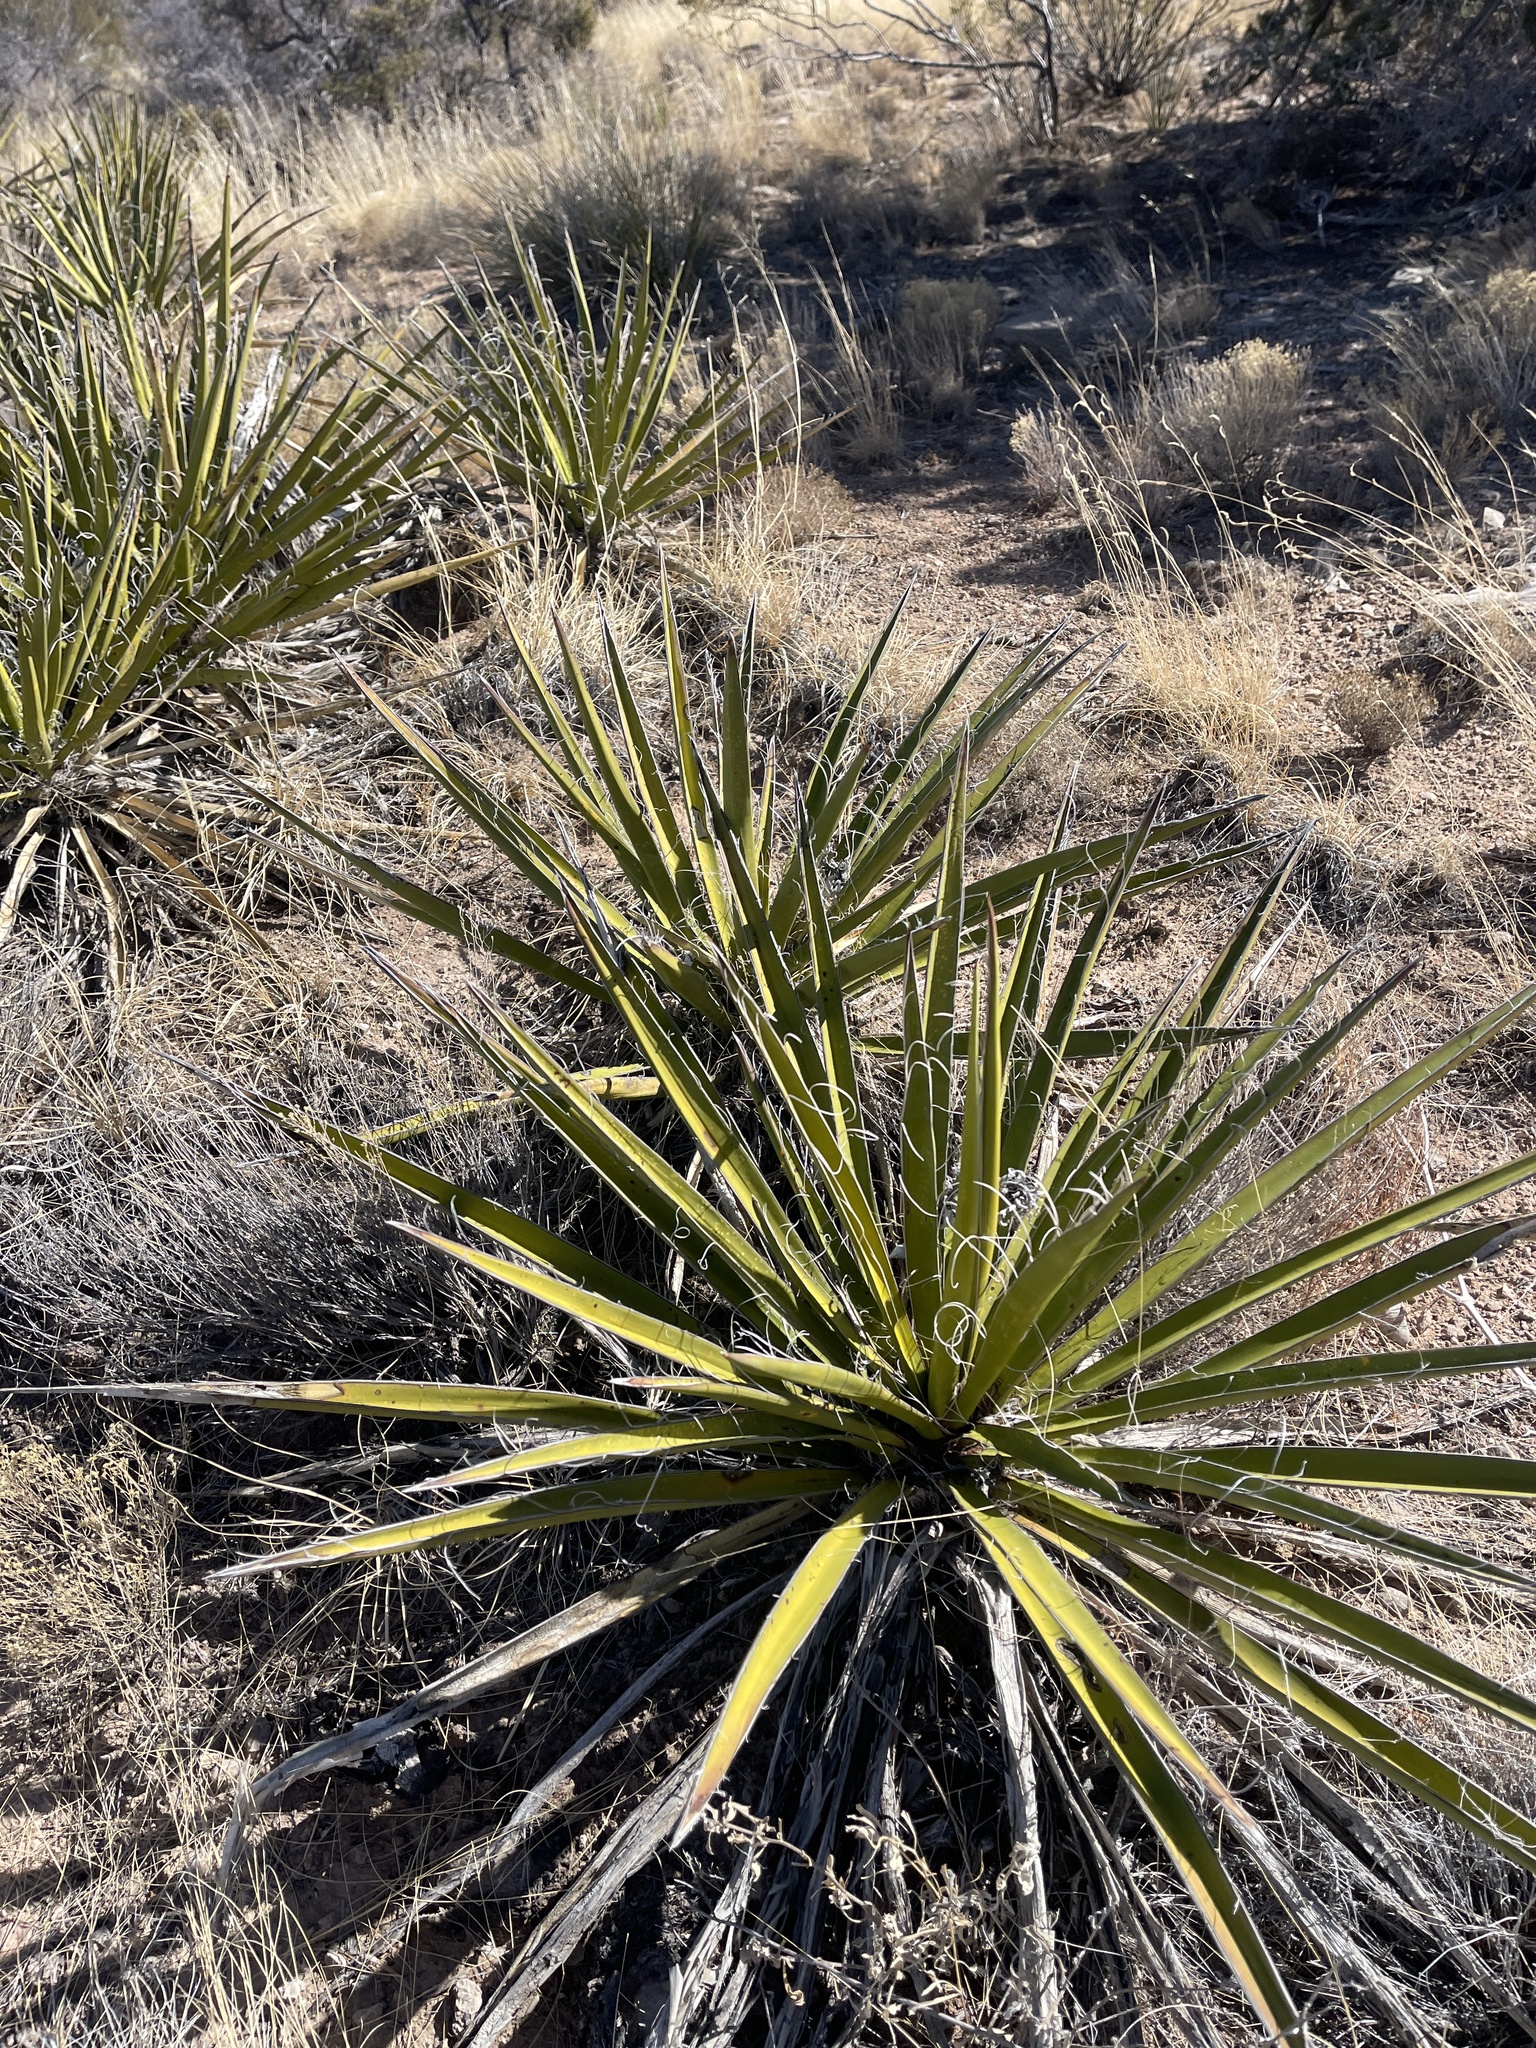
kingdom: Plantae
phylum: Tracheophyta
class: Liliopsida
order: Asparagales
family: Asparagaceae
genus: Yucca
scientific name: Yucca baccata
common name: Banana yucca
